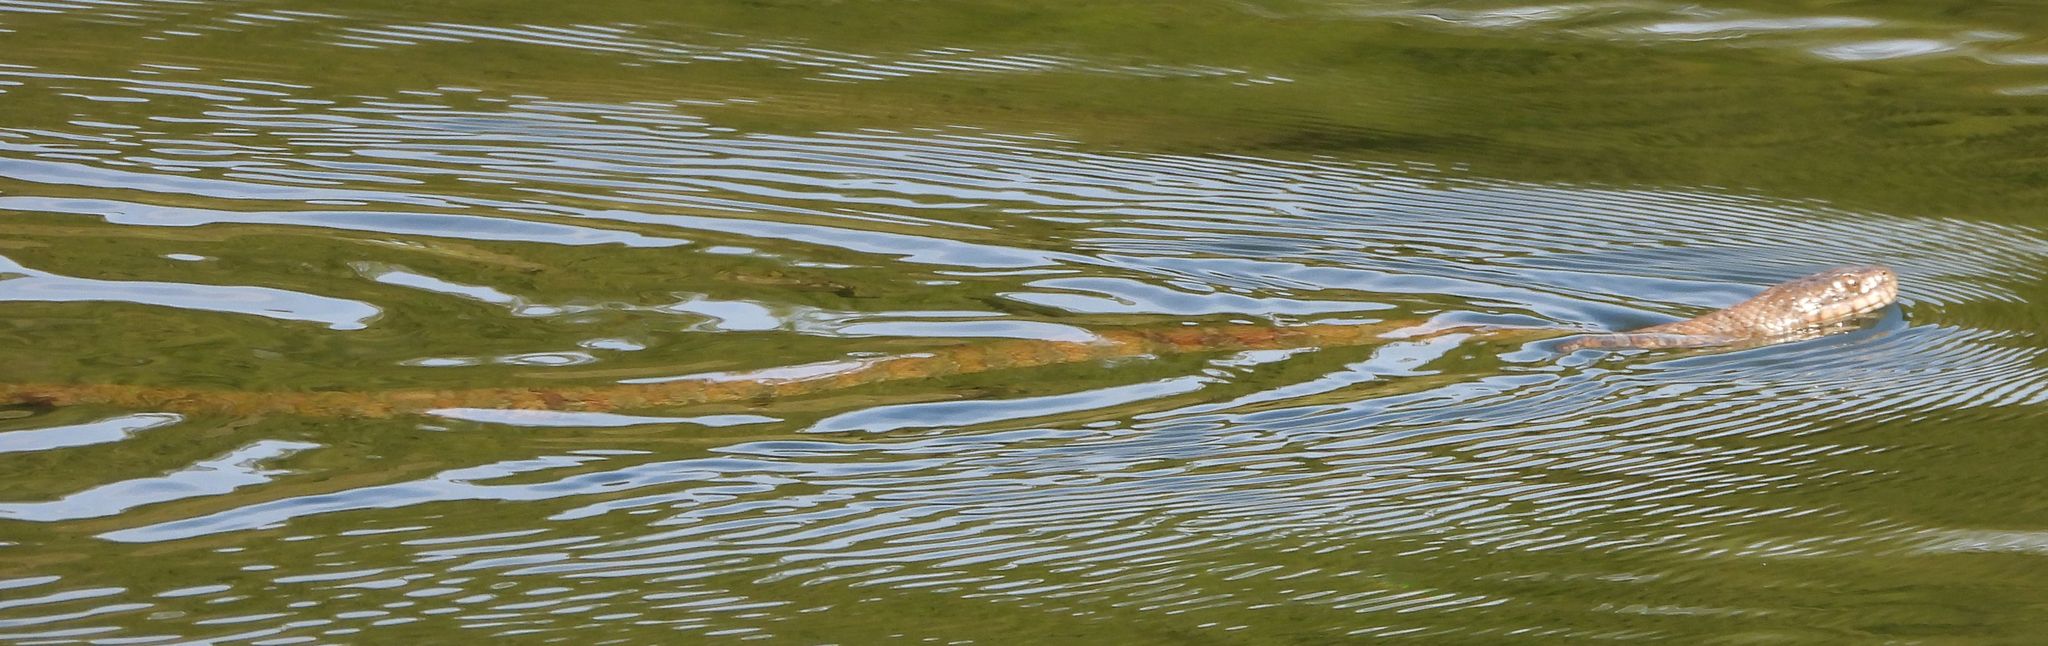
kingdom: Animalia
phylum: Chordata
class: Squamata
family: Colubridae
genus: Nerodia
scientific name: Nerodia sipedon
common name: Northern water snake
